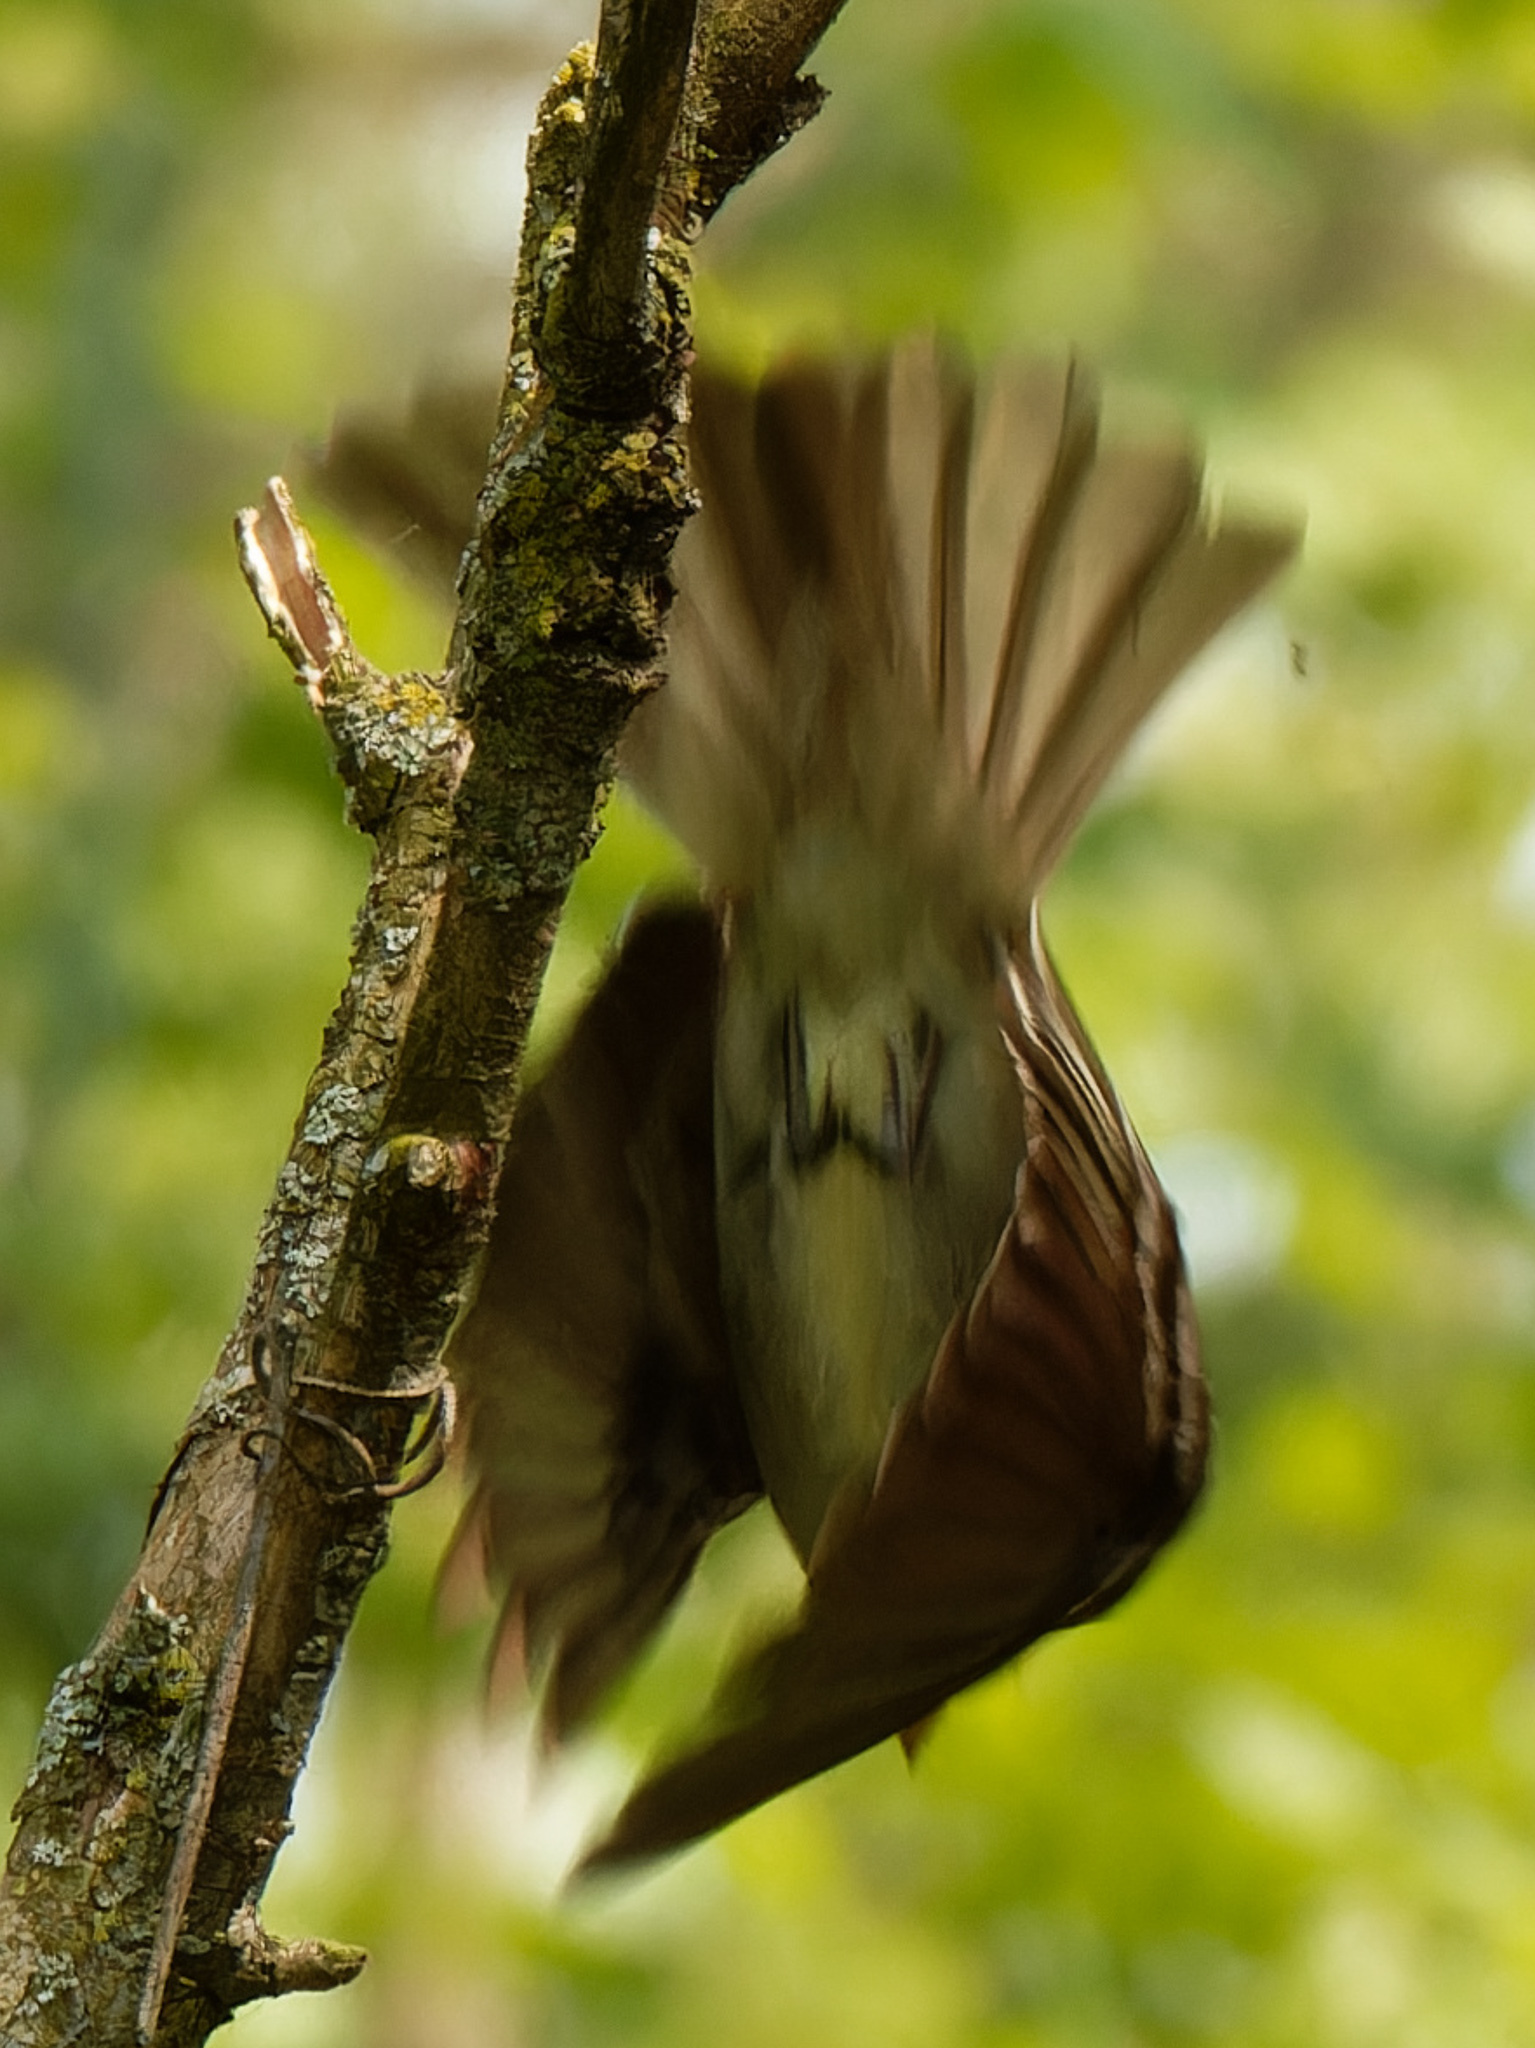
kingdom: Animalia
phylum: Chordata
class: Aves
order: Passeriformes
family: Tyrannidae
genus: Contopus
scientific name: Contopus virens
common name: Eastern wood-pewee
